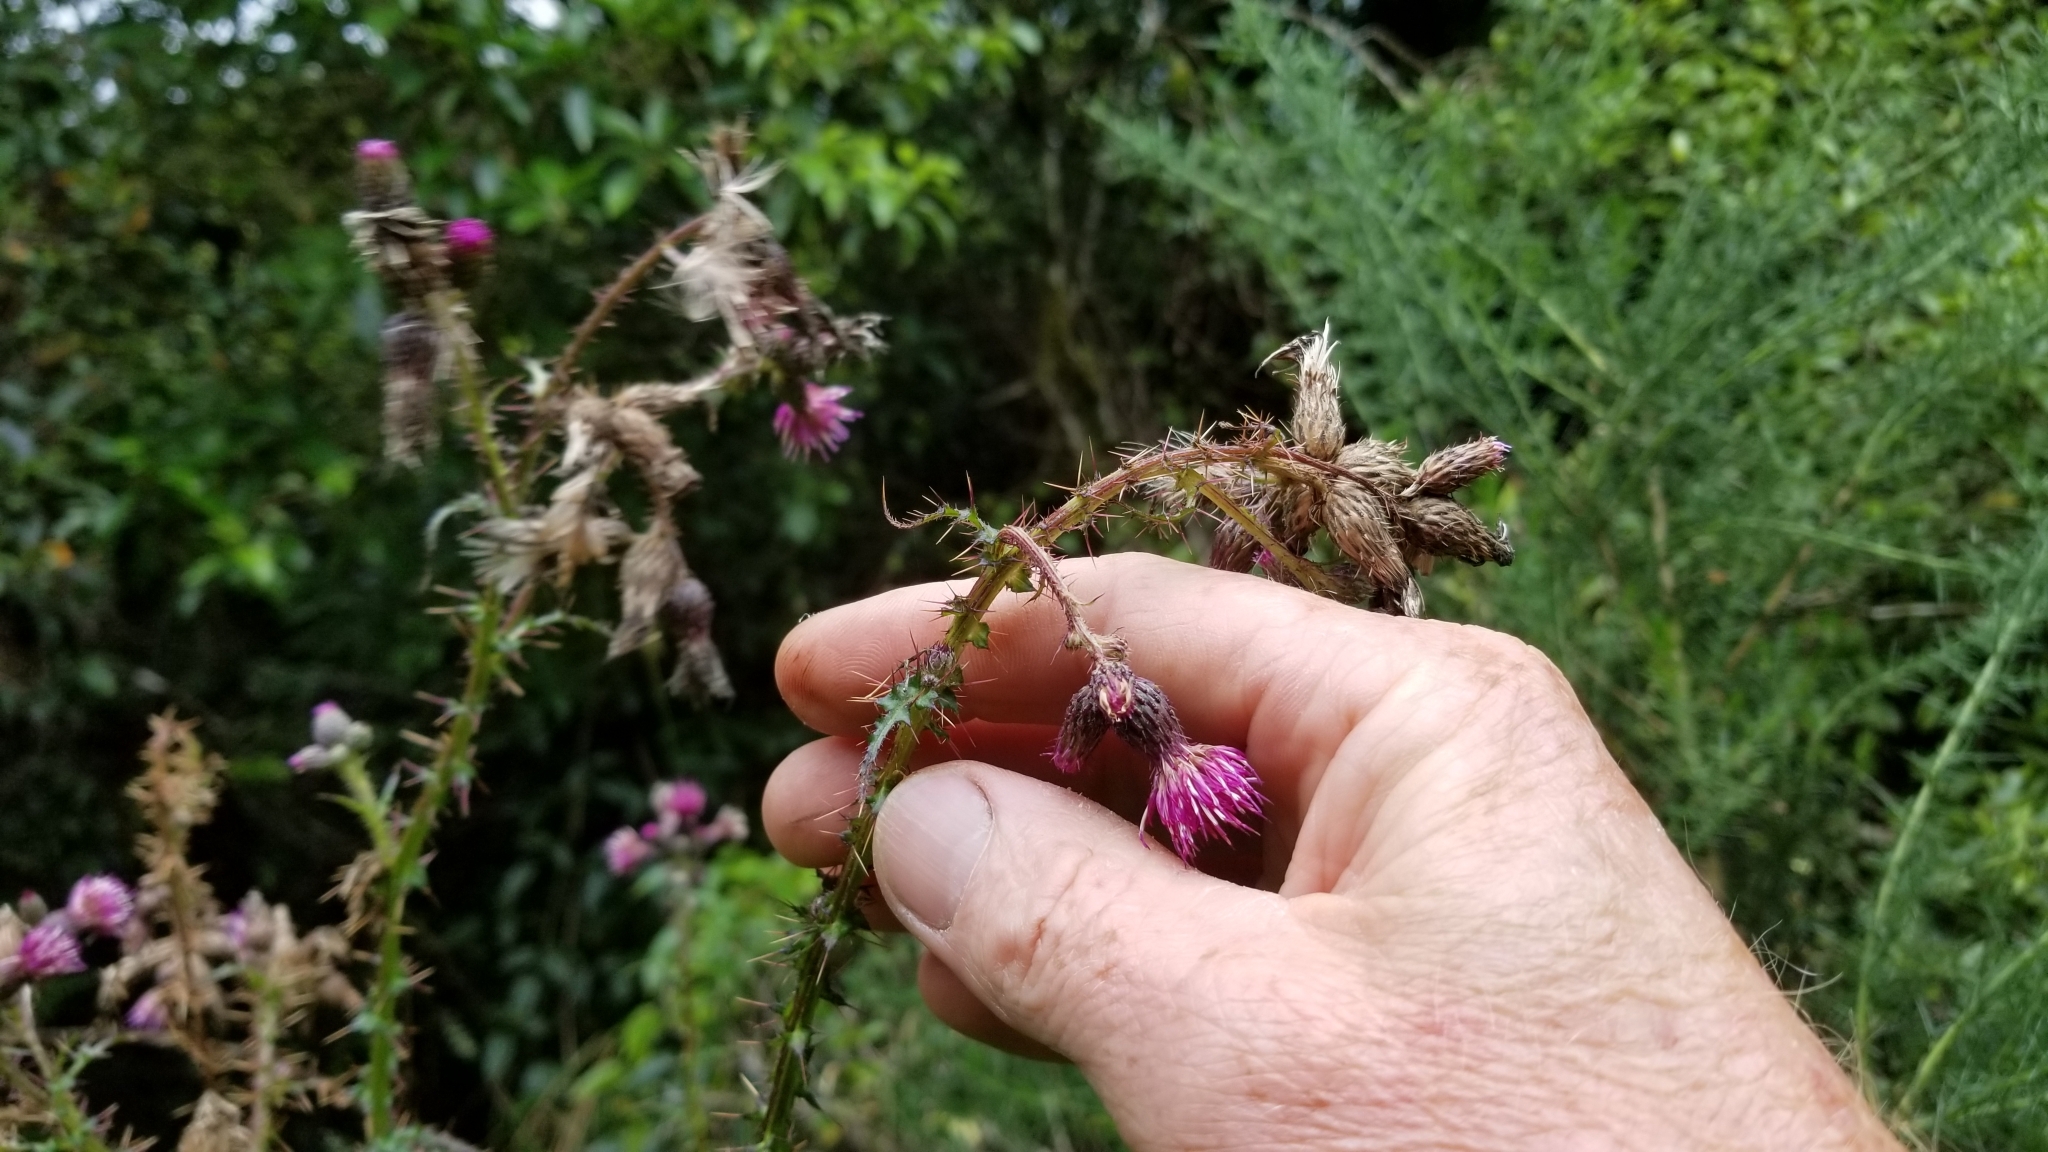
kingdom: Plantae
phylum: Tracheophyta
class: Magnoliopsida
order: Asterales
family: Asteraceae
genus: Cirsium
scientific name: Cirsium palustre
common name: Marsh thistle
